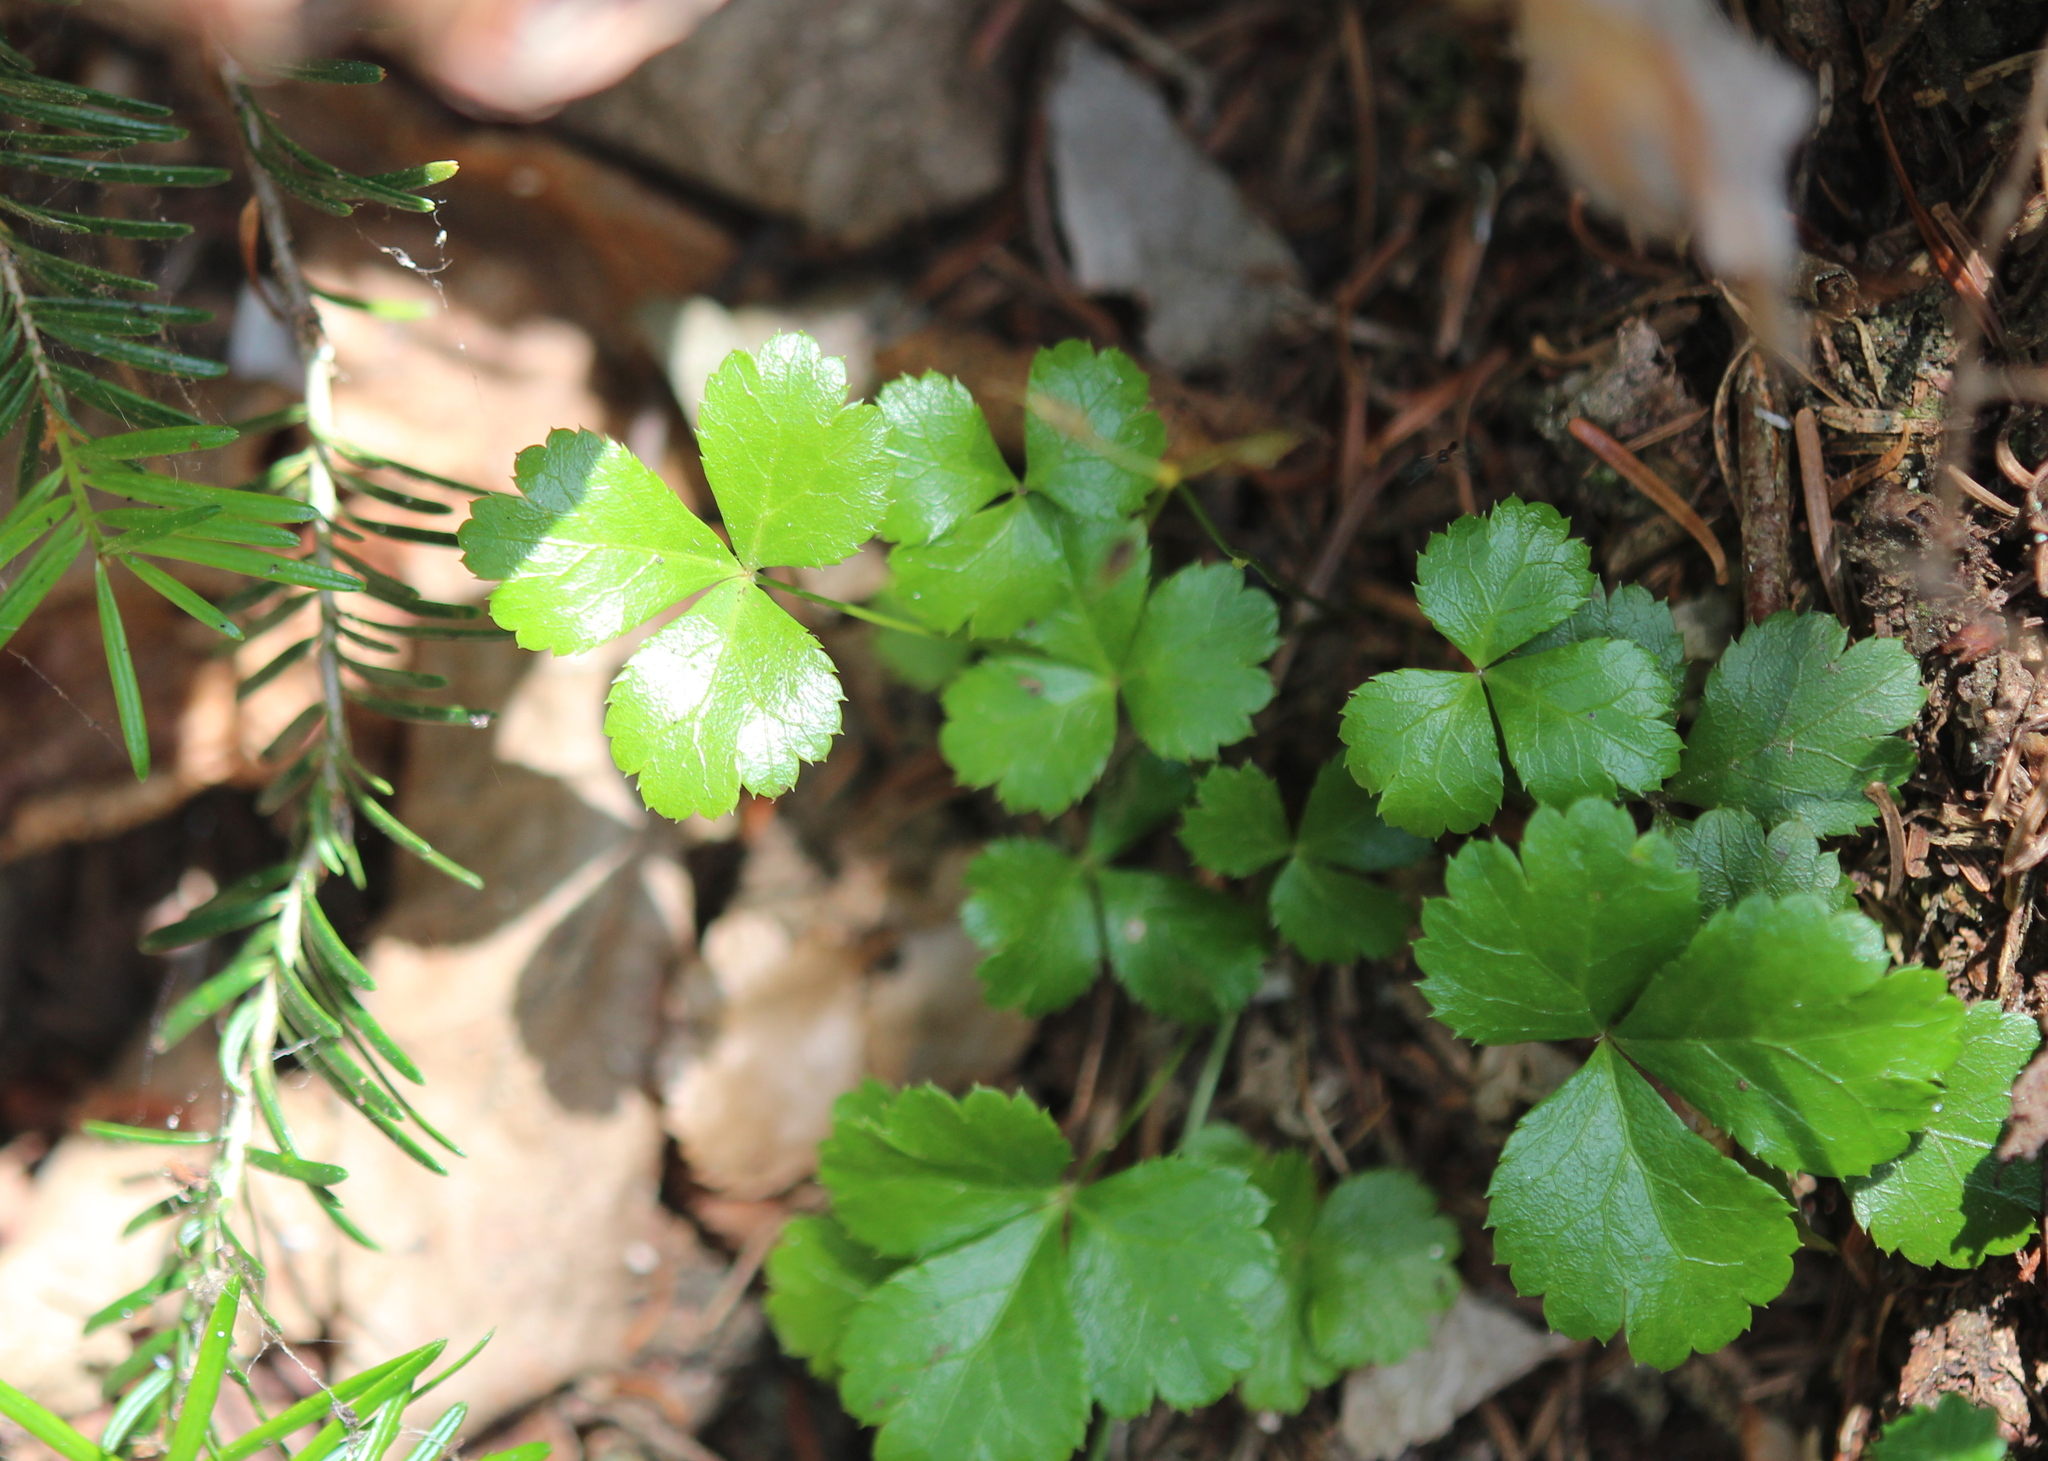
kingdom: Plantae
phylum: Tracheophyta
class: Magnoliopsida
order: Ranunculales
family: Ranunculaceae
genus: Coptis
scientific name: Coptis trifolia
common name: Canker-root
